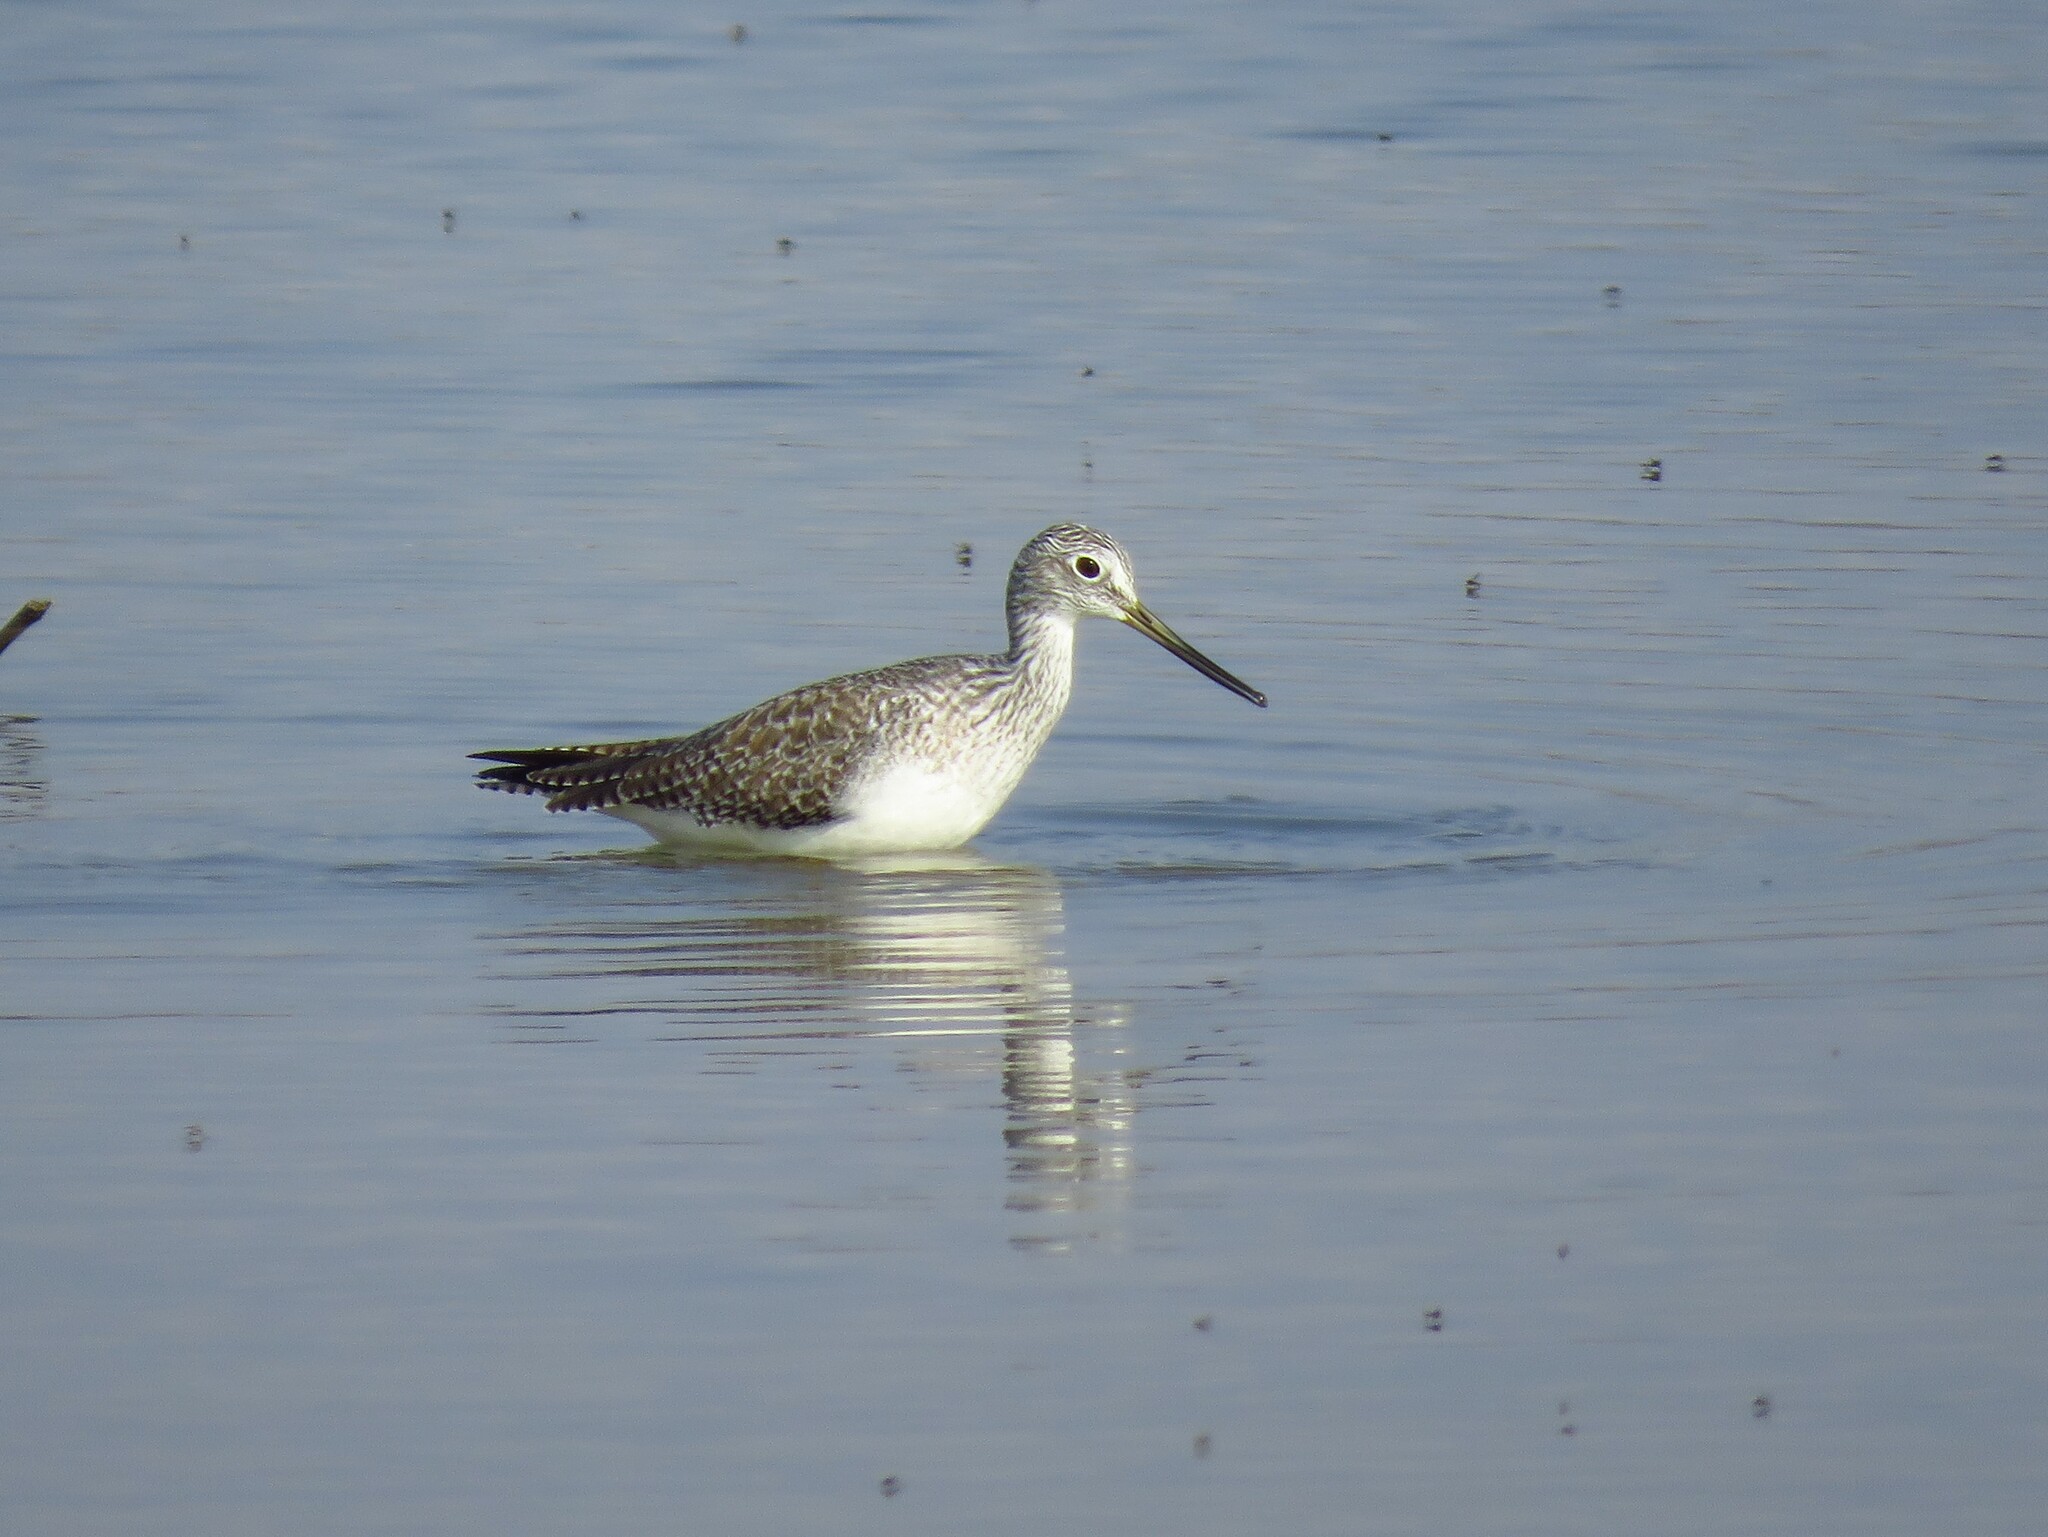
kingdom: Animalia
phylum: Chordata
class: Aves
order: Charadriiformes
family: Scolopacidae
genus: Tringa
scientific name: Tringa melanoleuca
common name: Greater yellowlegs
